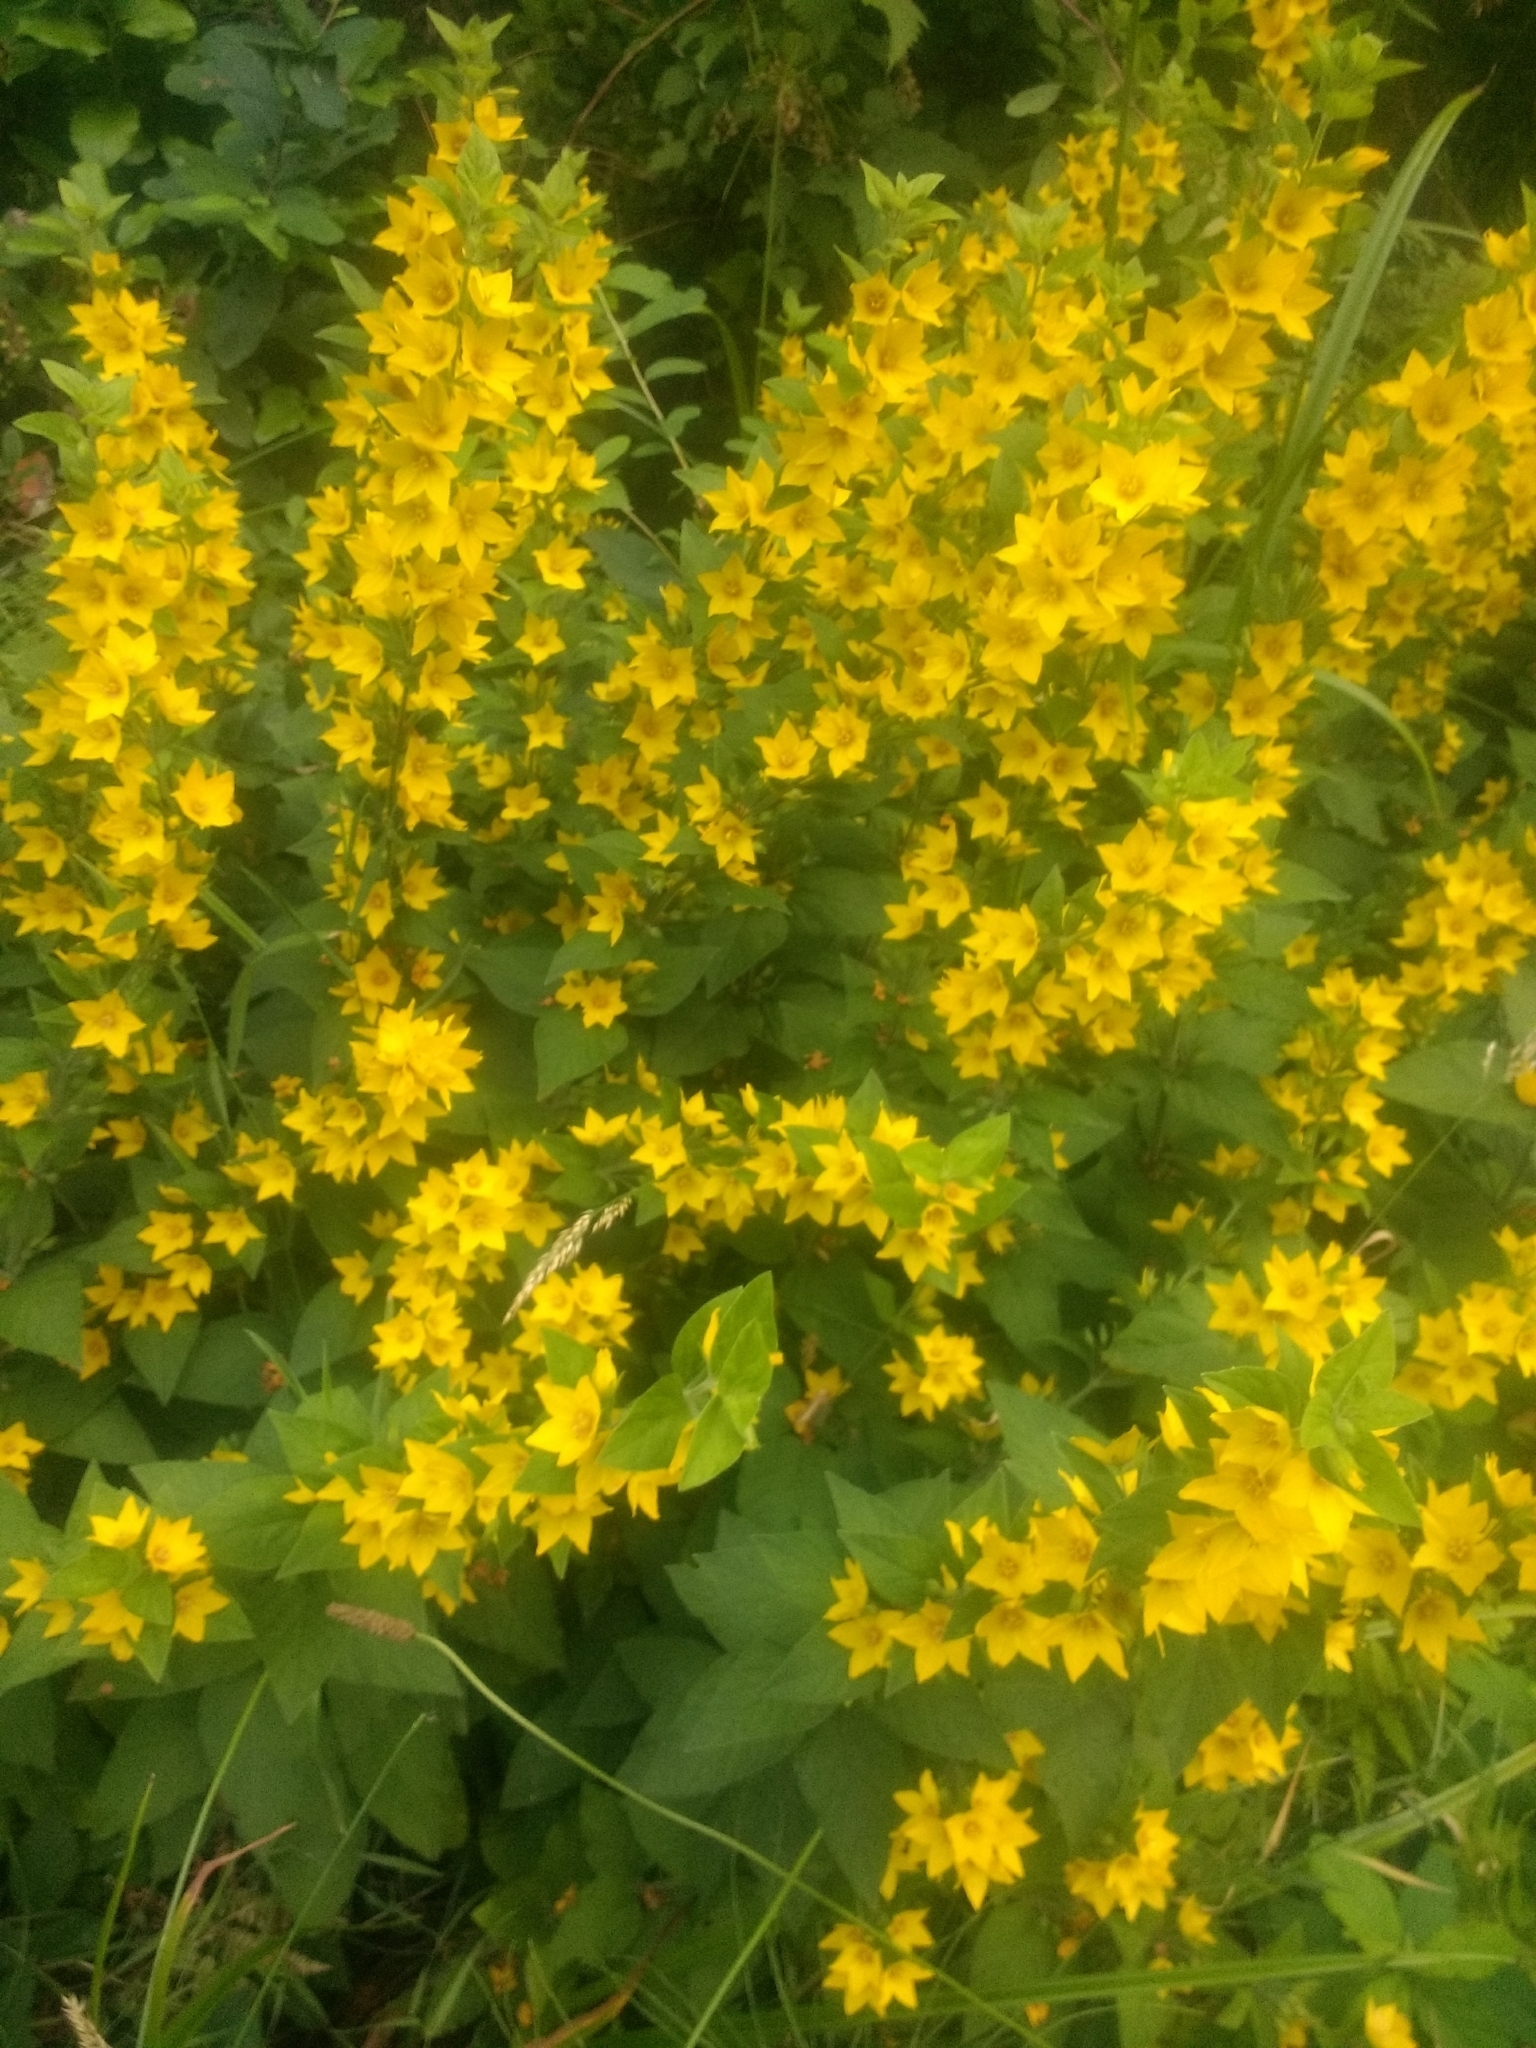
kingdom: Plantae
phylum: Tracheophyta
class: Magnoliopsida
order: Ericales
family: Primulaceae
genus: Lysimachia
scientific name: Lysimachia punctata
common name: Dotted loosestrife
